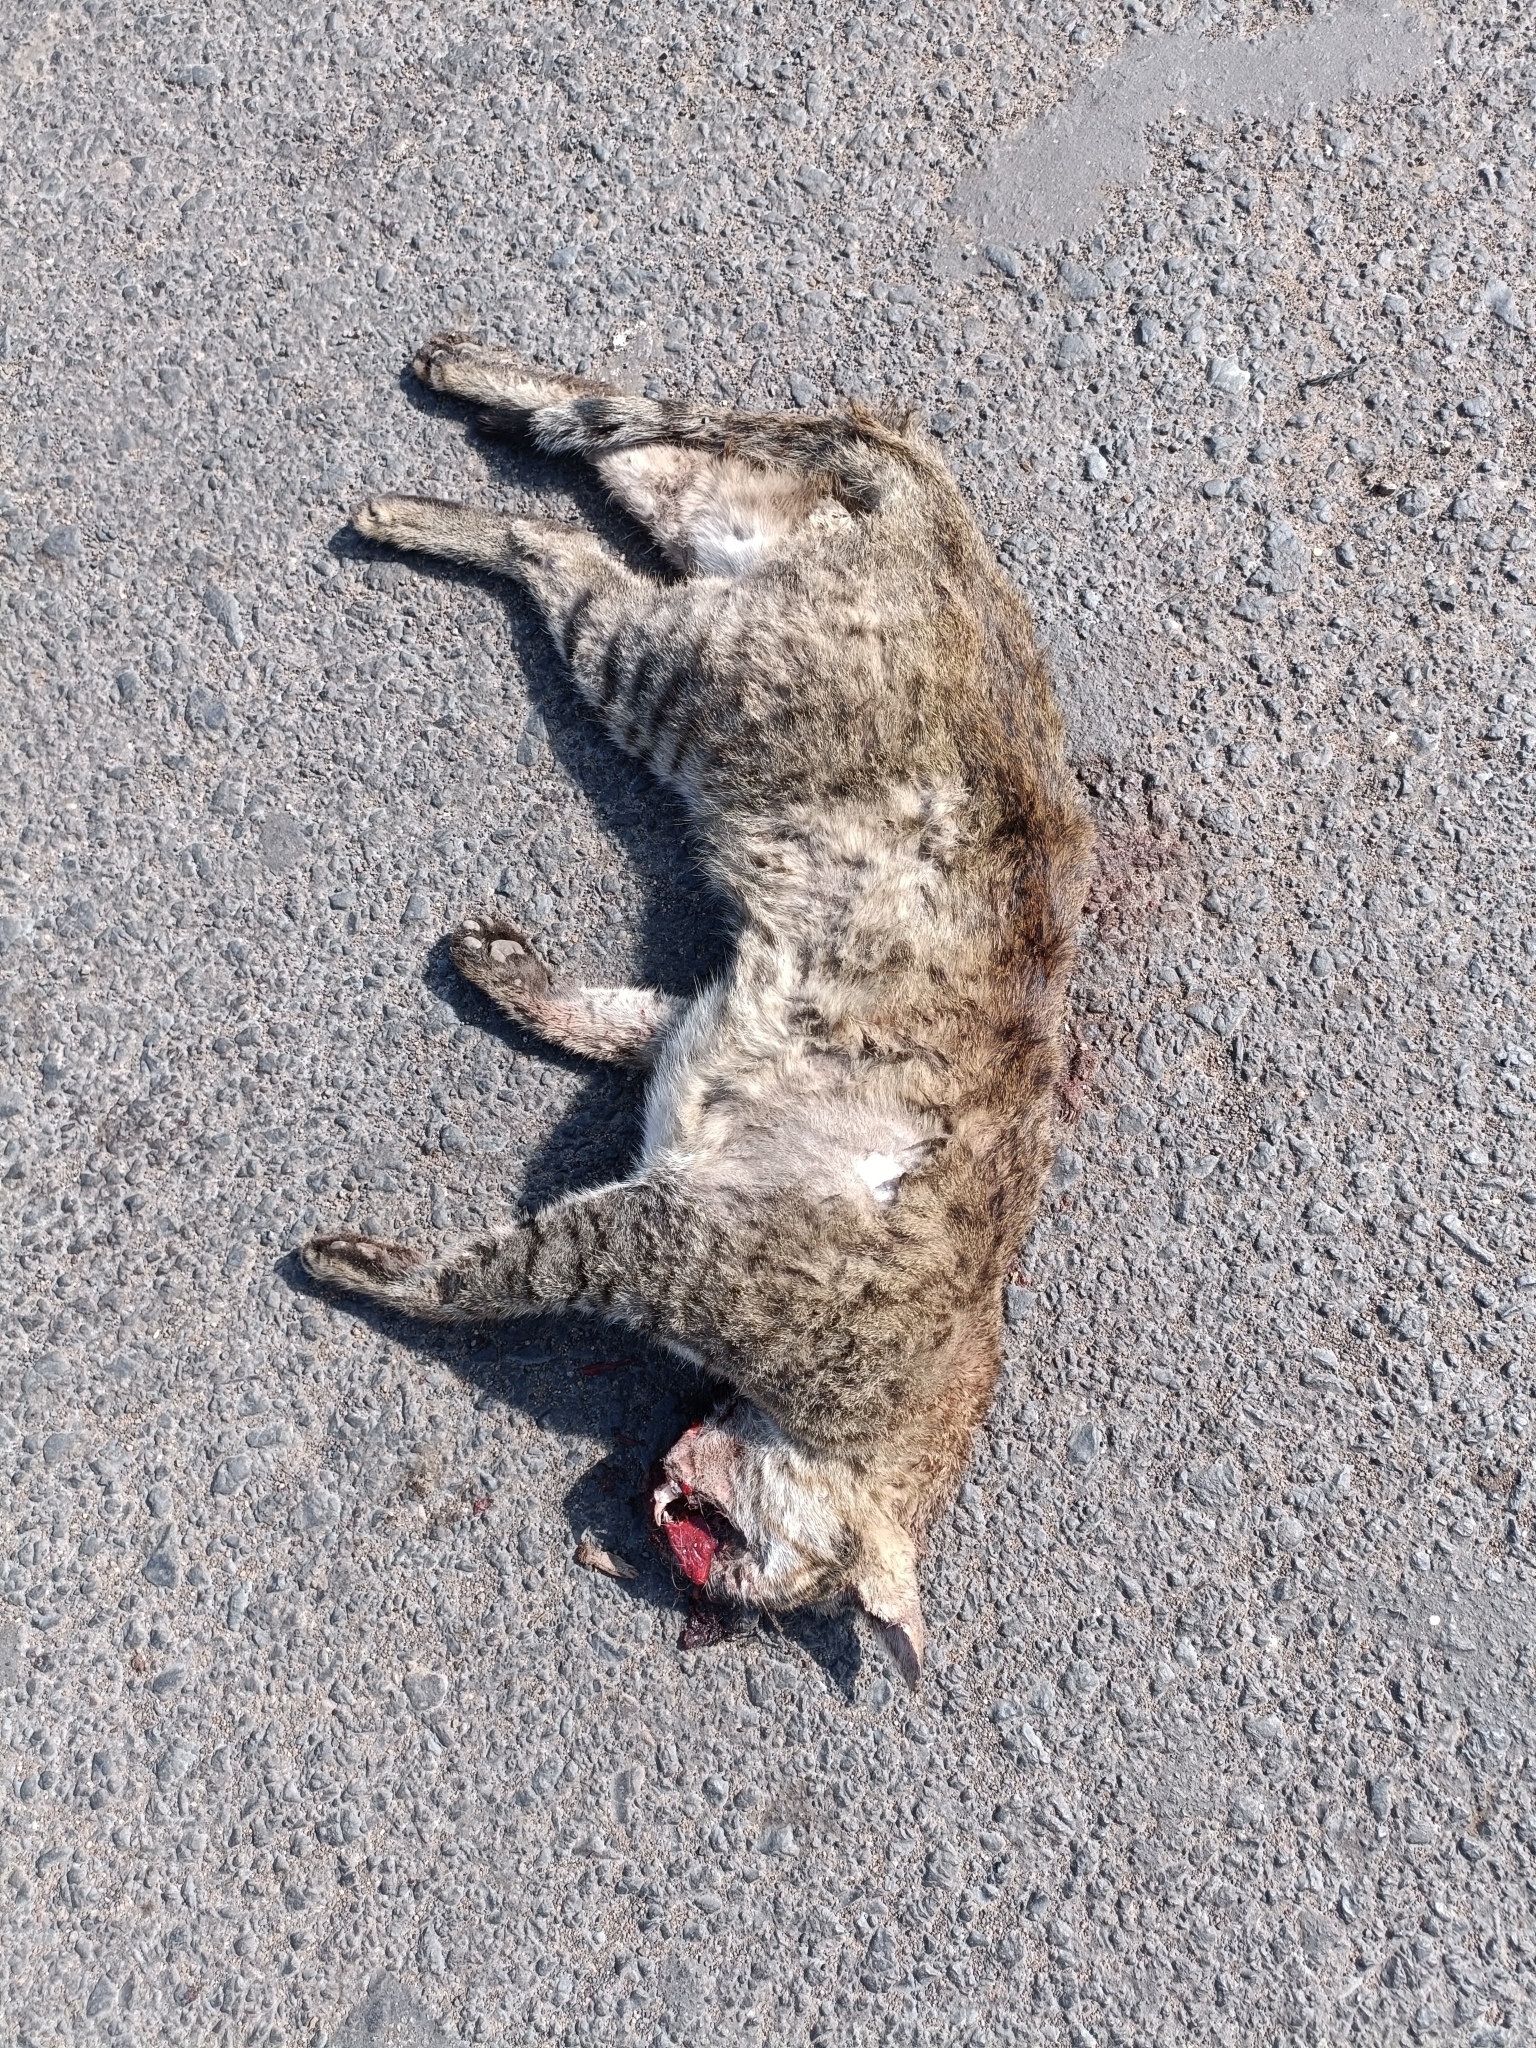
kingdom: Animalia
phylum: Chordata
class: Mammalia
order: Carnivora
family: Felidae
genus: Felis
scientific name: Felis silvestris
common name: Wildcat
